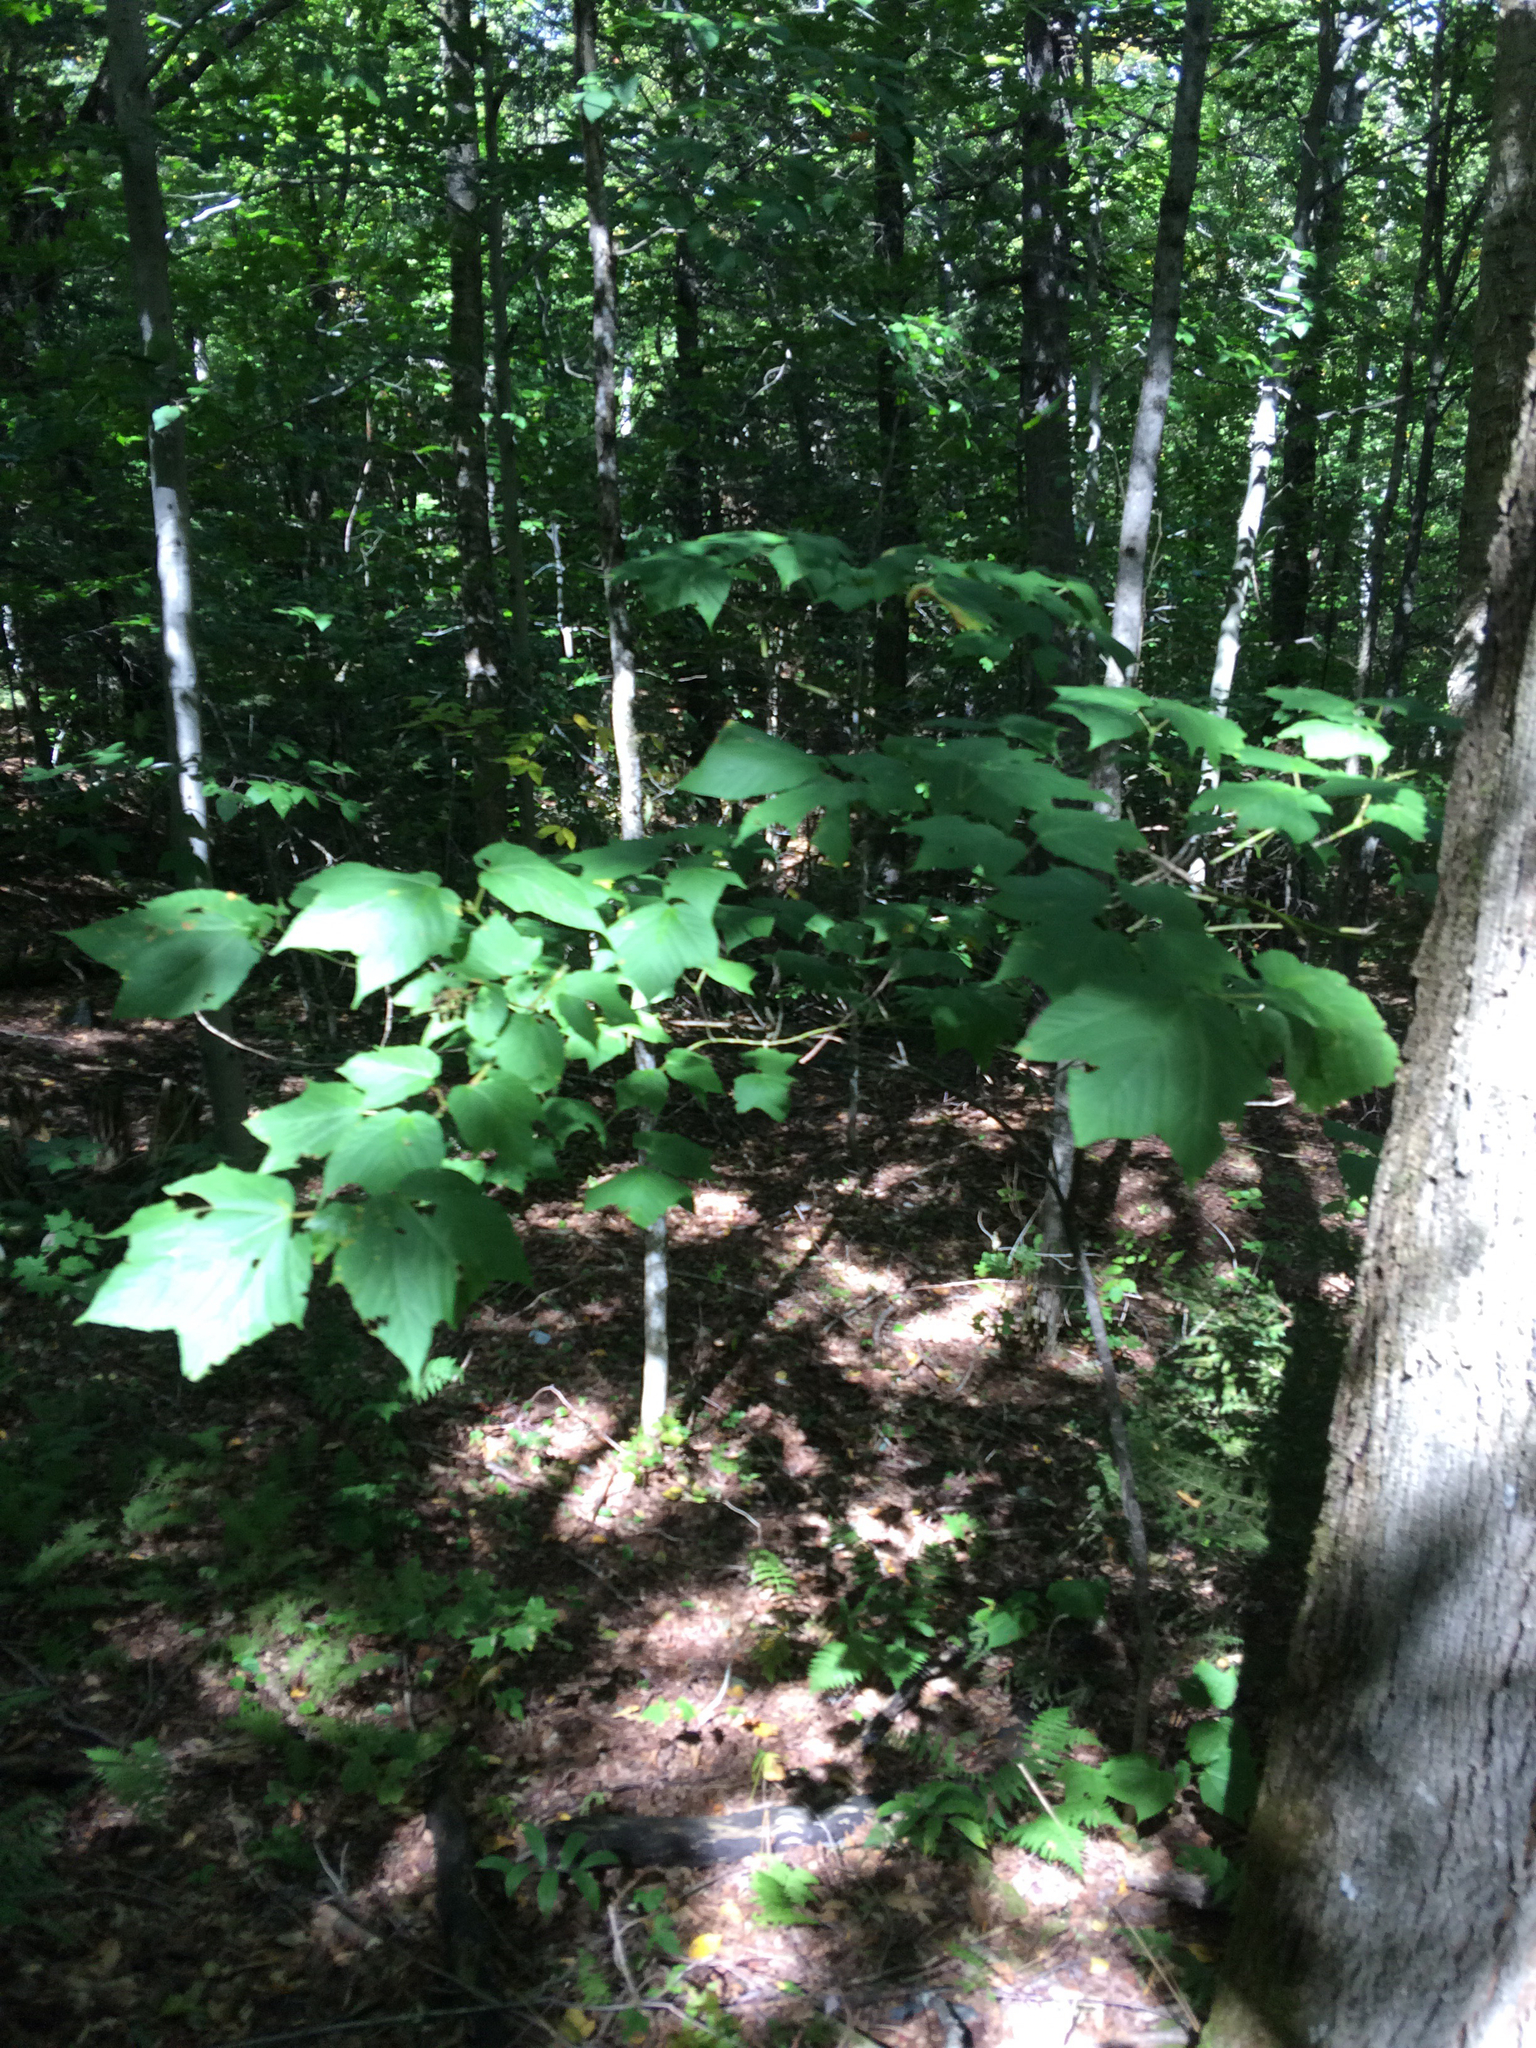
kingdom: Plantae
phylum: Tracheophyta
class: Magnoliopsida
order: Sapindales
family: Sapindaceae
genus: Acer
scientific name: Acer pensylvanicum
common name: Moosewood
